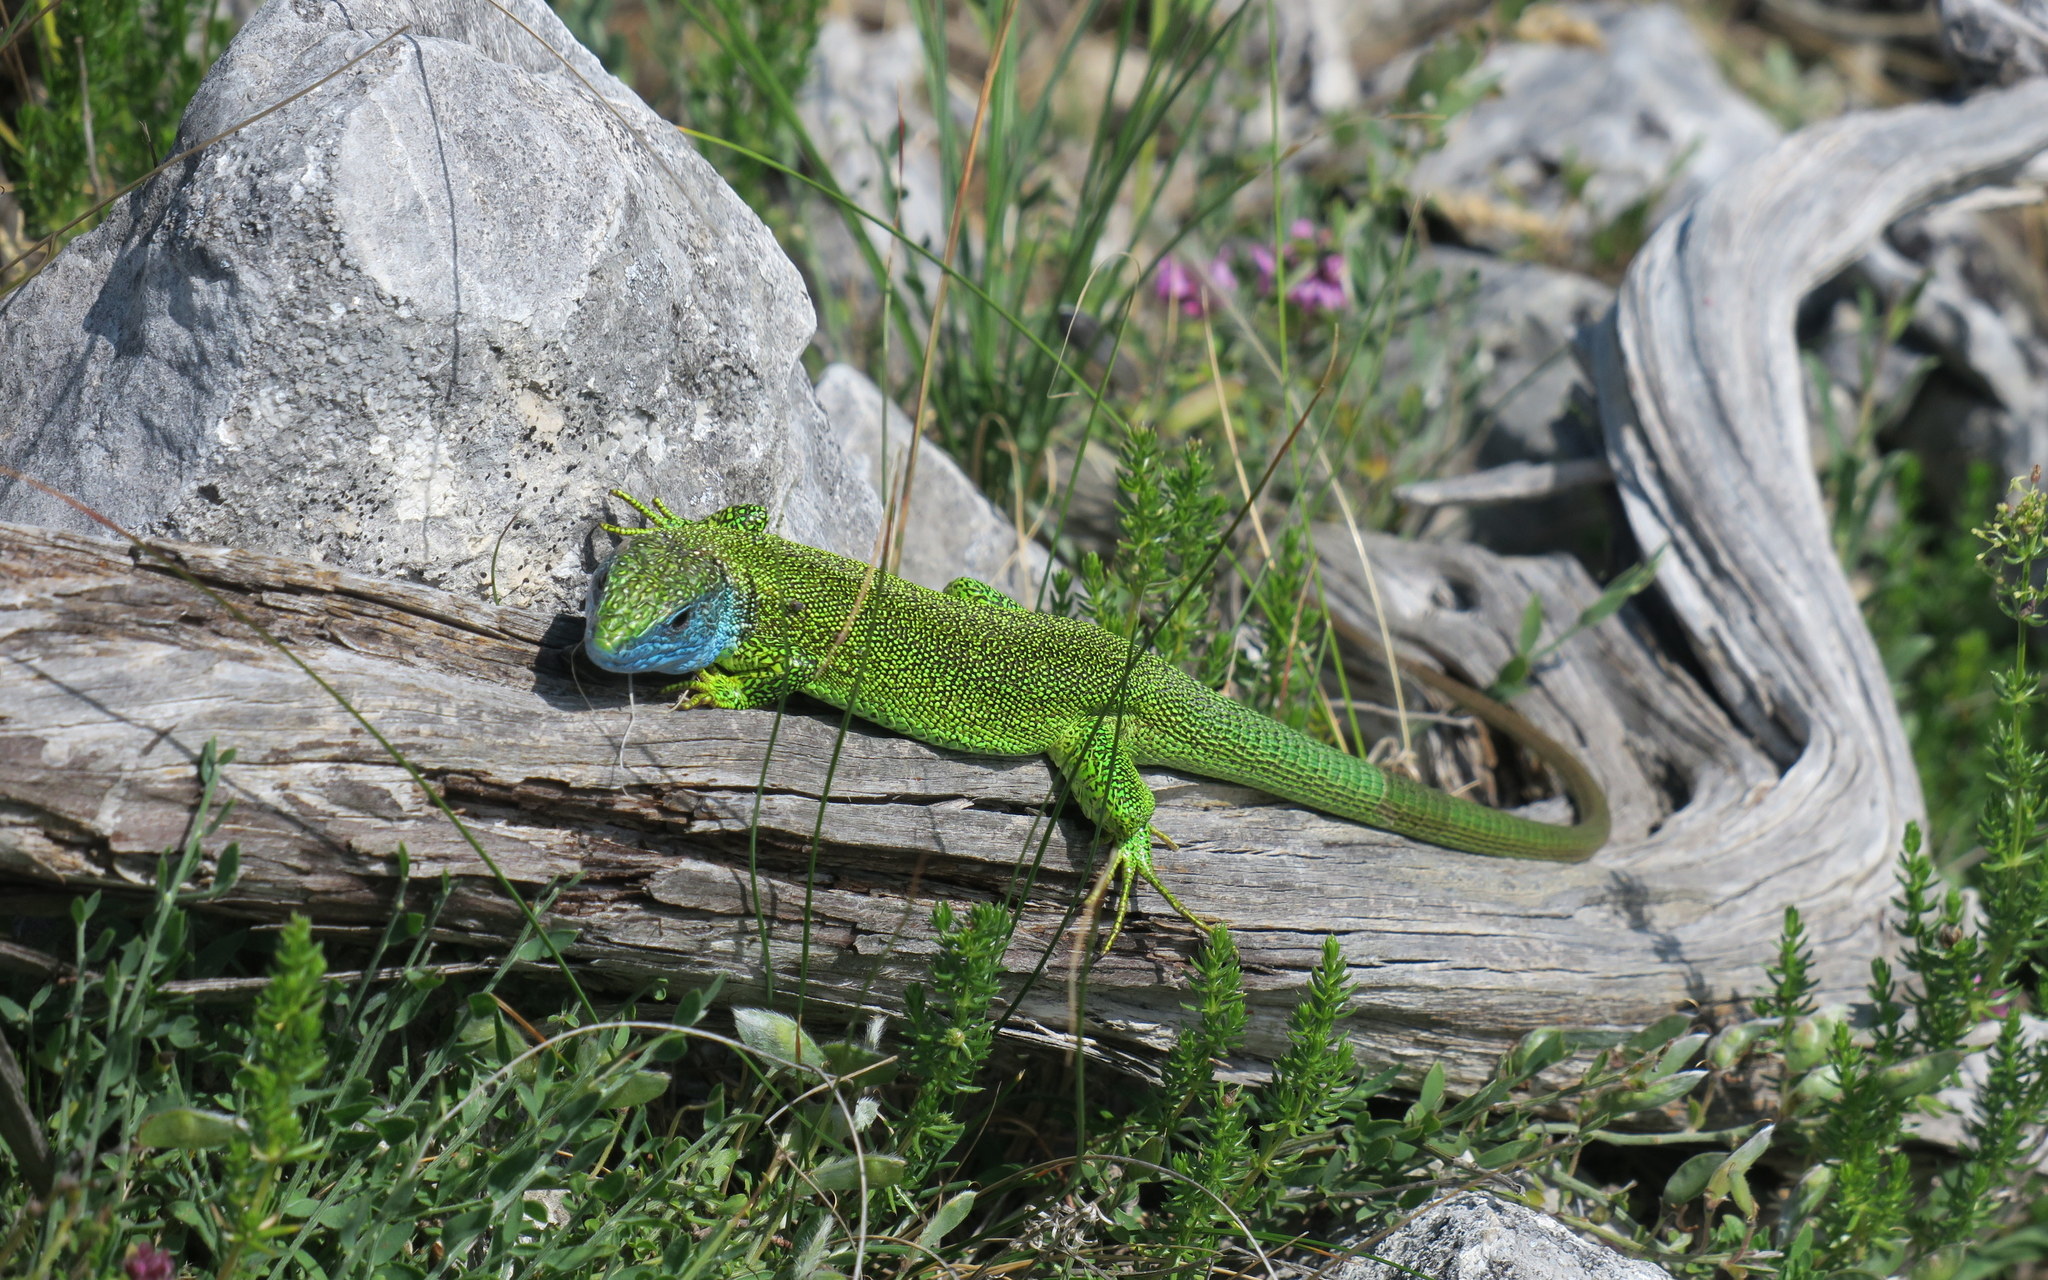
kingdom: Animalia
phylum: Chordata
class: Squamata
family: Lacertidae
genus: Lacerta
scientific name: Lacerta viridis
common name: European green lizard
